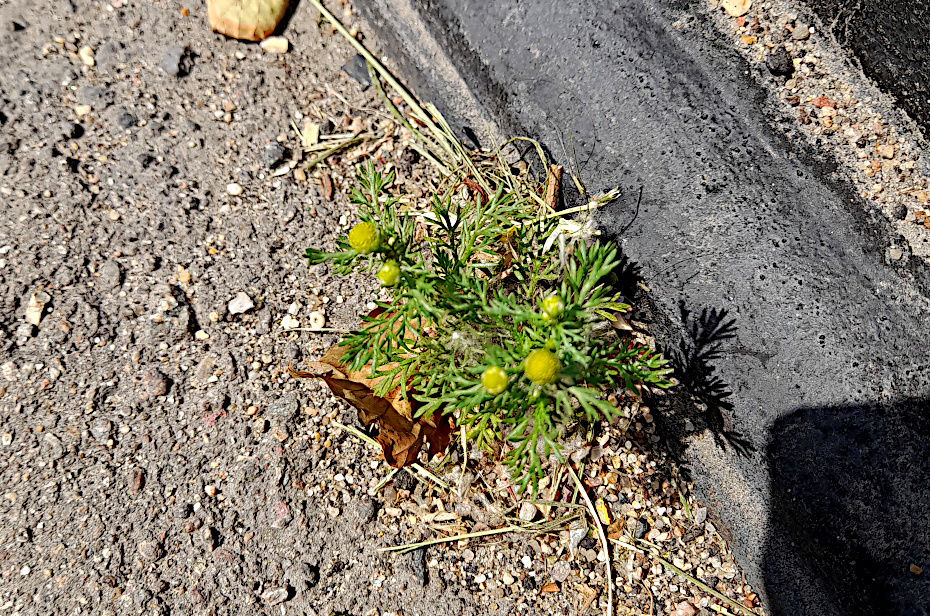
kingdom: Plantae
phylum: Tracheophyta
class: Magnoliopsida
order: Asterales
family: Asteraceae
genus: Matricaria
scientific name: Matricaria discoidea
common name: Disc mayweed
